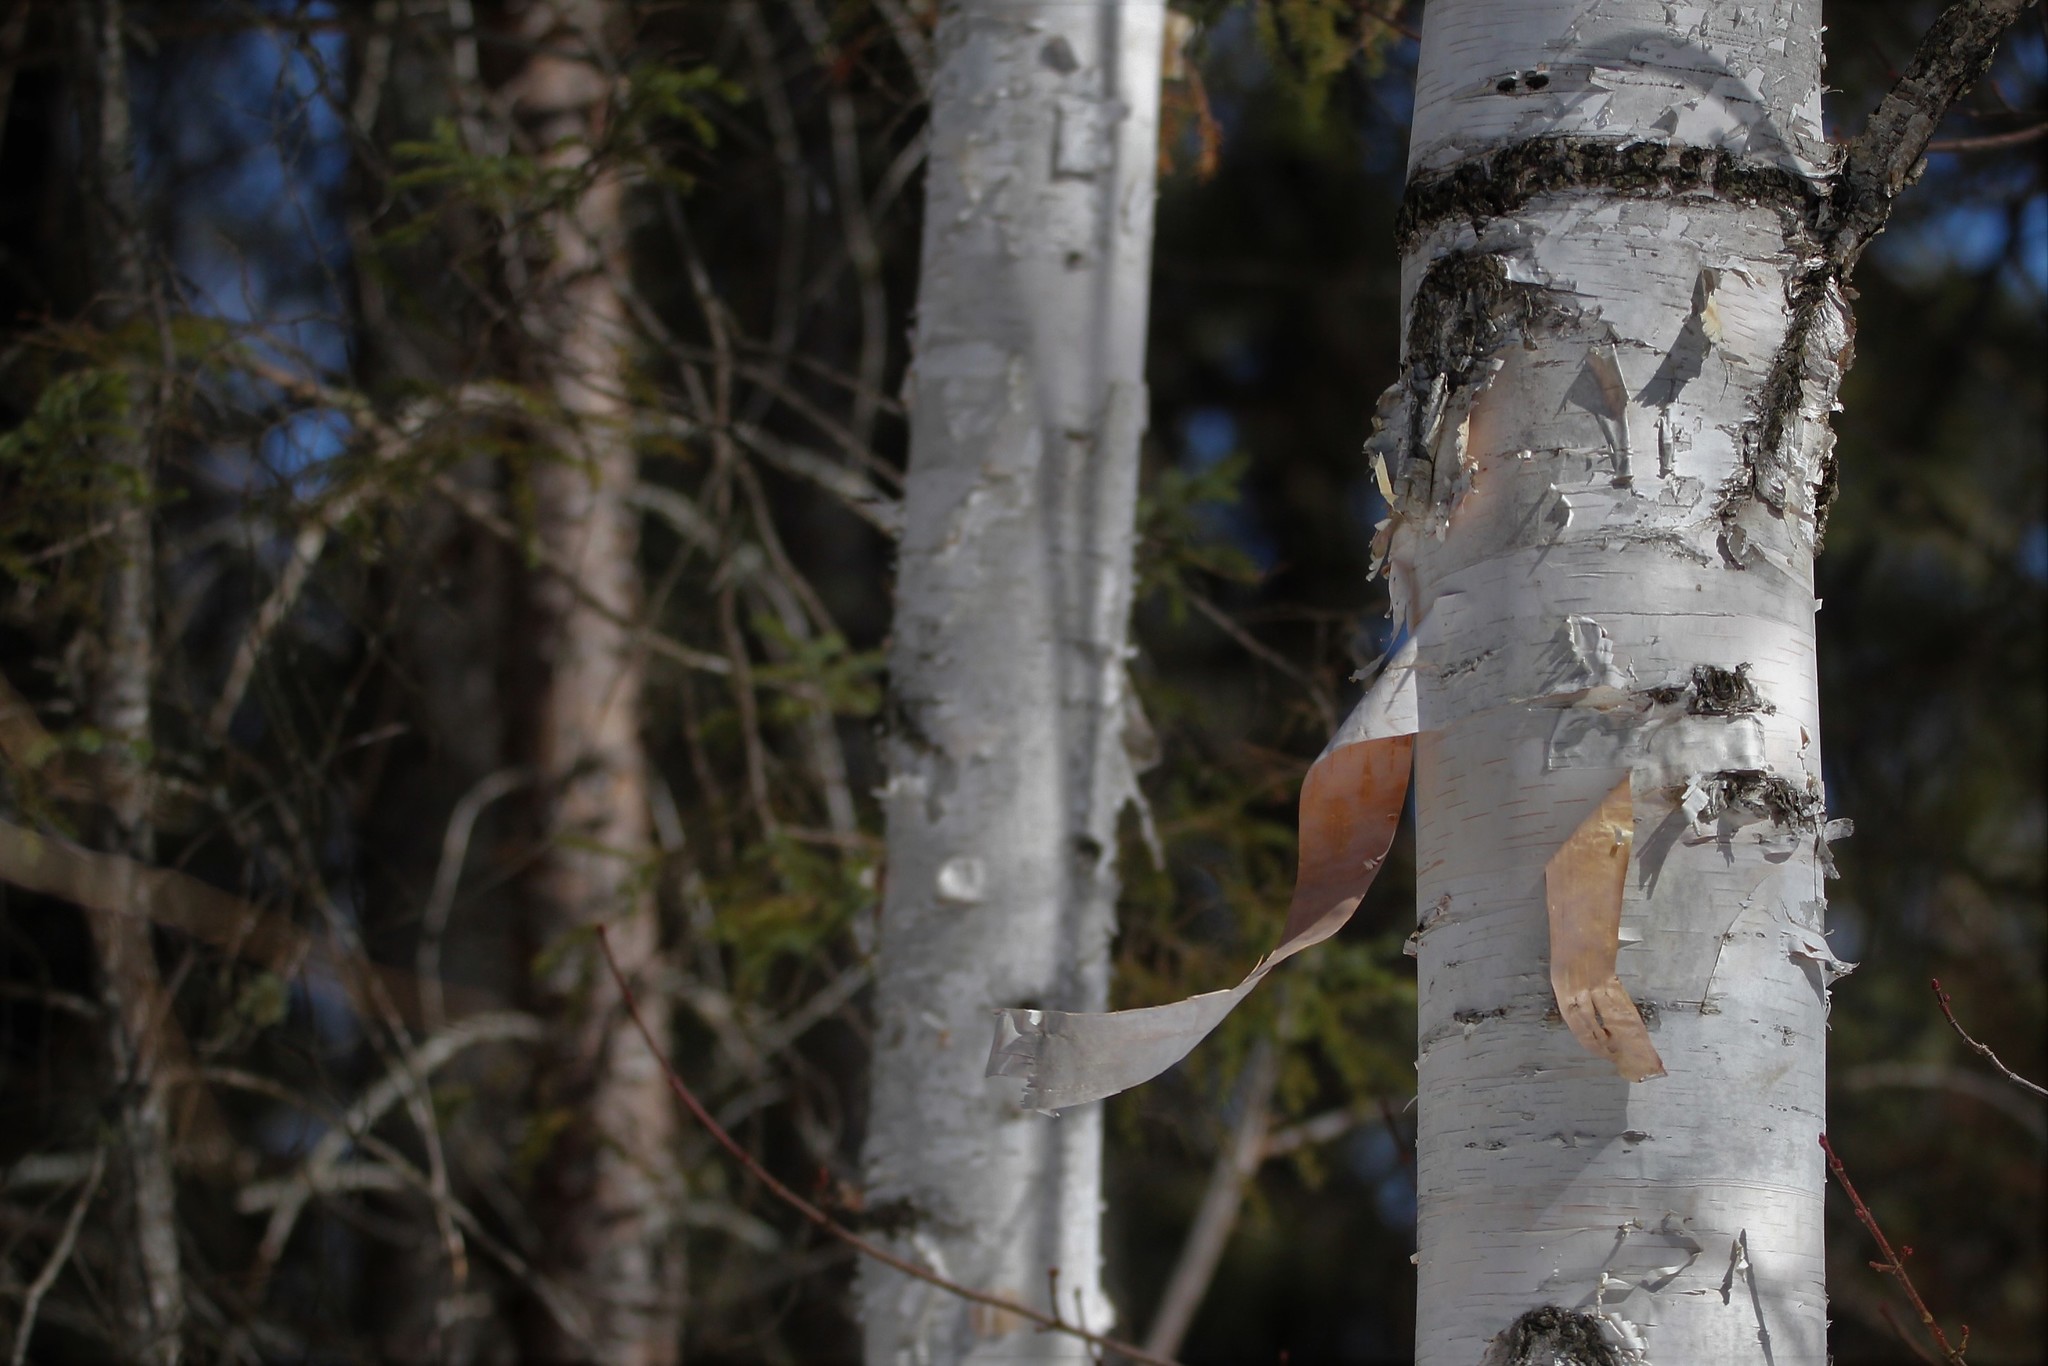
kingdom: Plantae
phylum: Tracheophyta
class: Magnoliopsida
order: Fagales
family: Betulaceae
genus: Betula
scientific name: Betula papyrifera
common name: Paper birch
